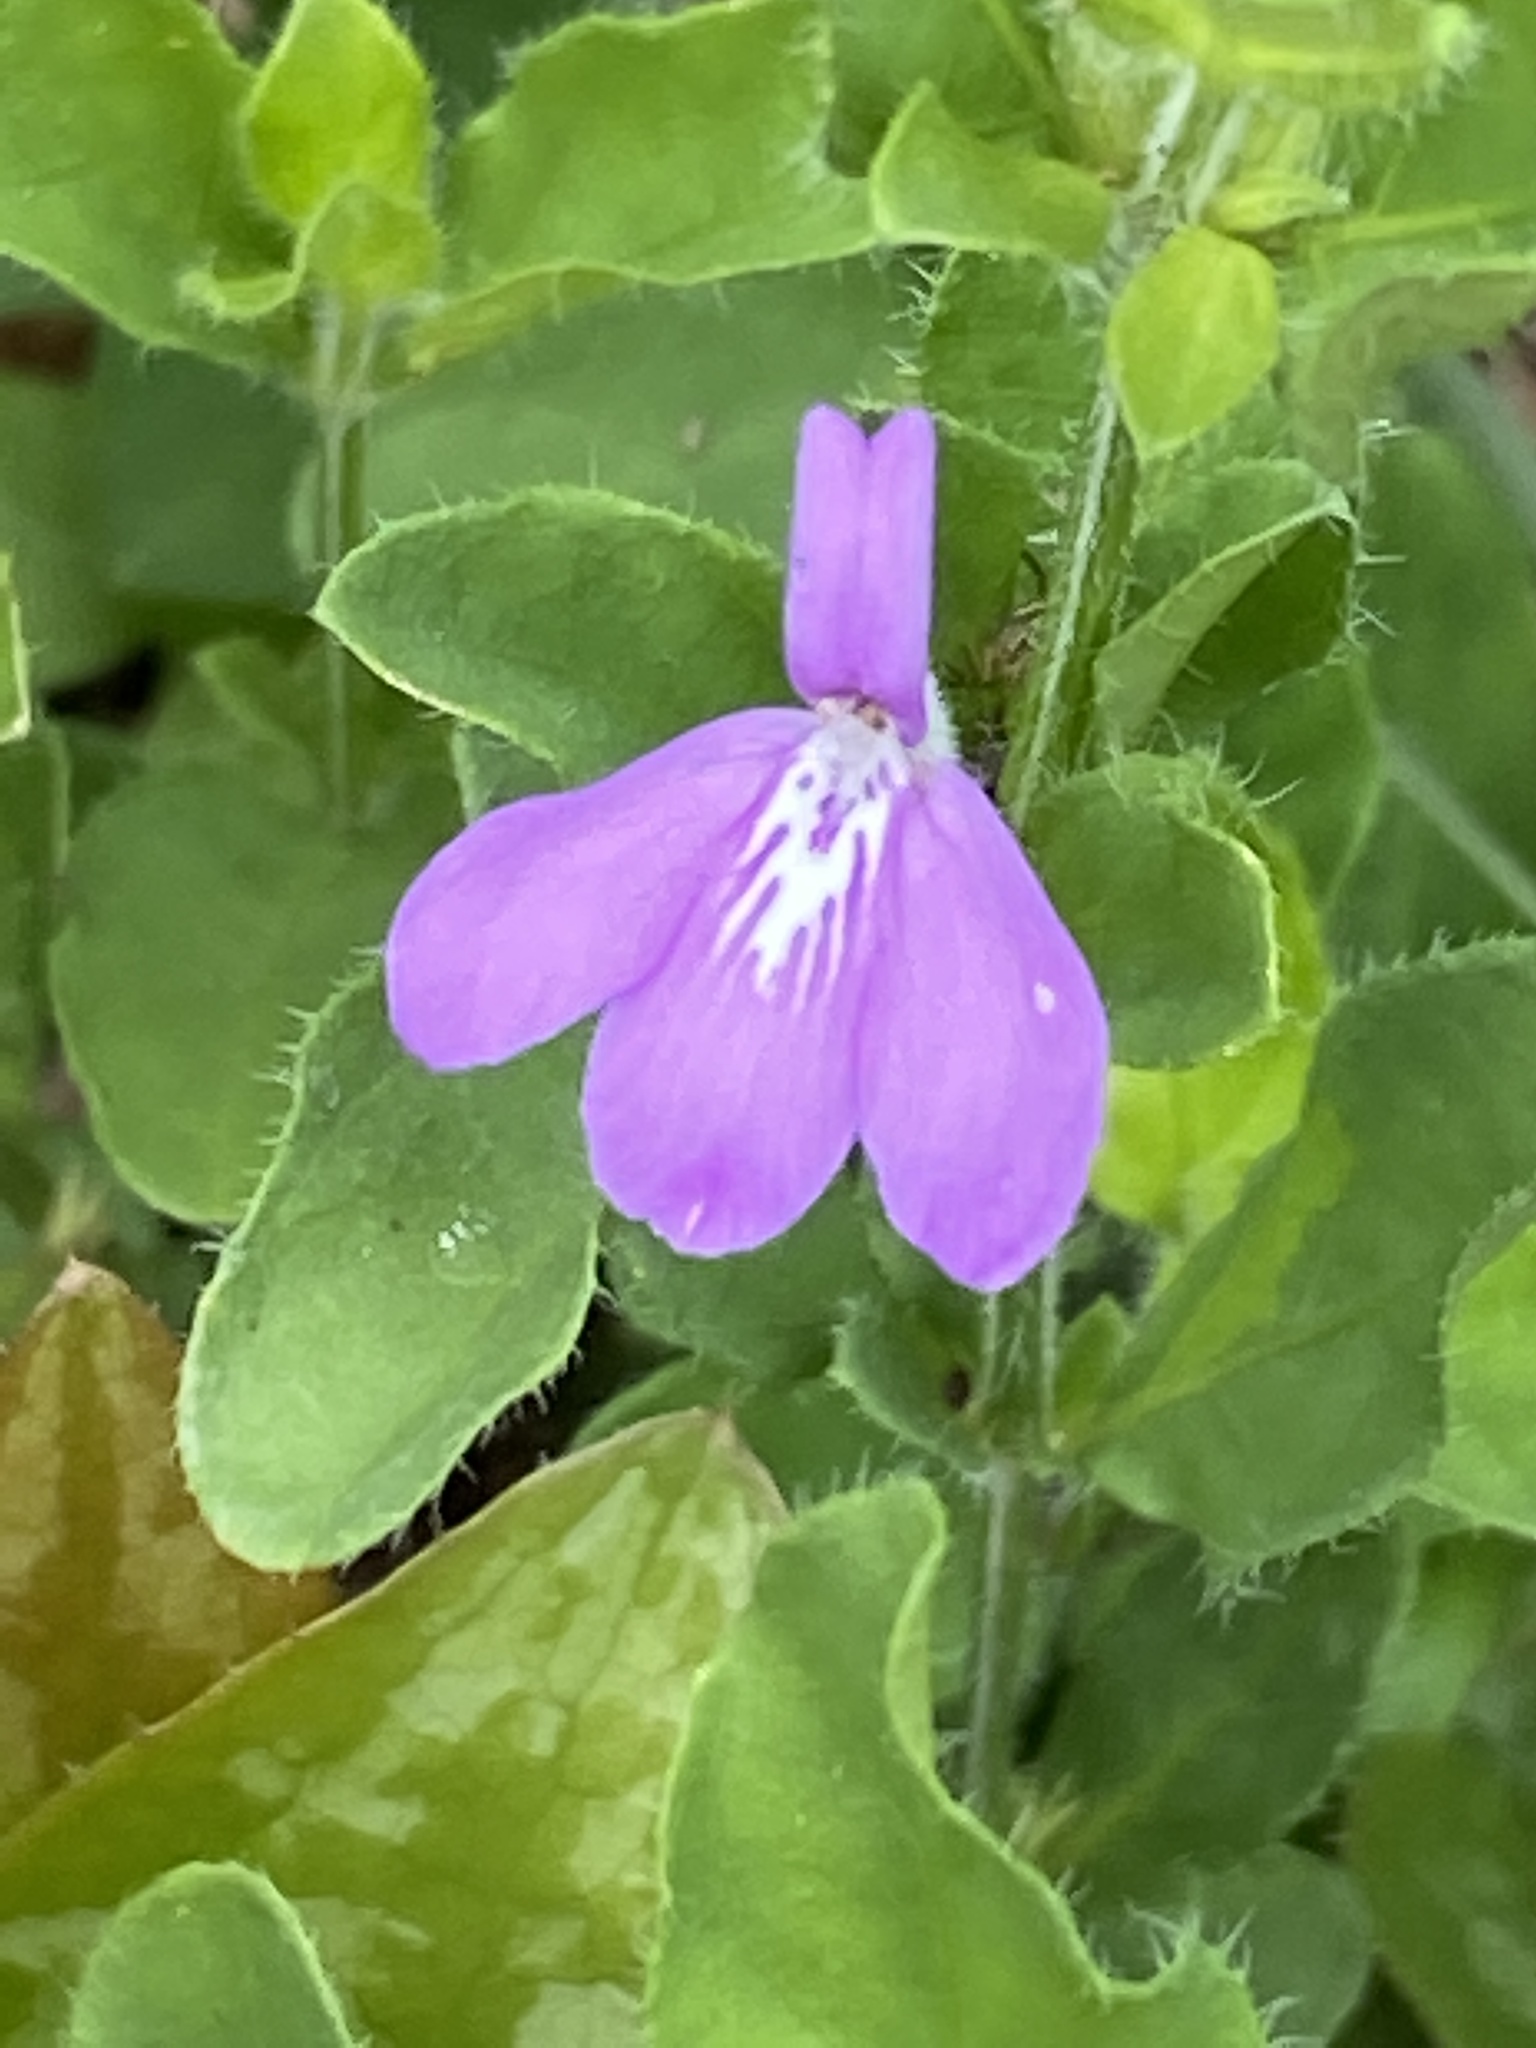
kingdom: Plantae
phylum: Tracheophyta
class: Magnoliopsida
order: Lamiales
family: Acanthaceae
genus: Justicia
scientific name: Justicia pilosella
